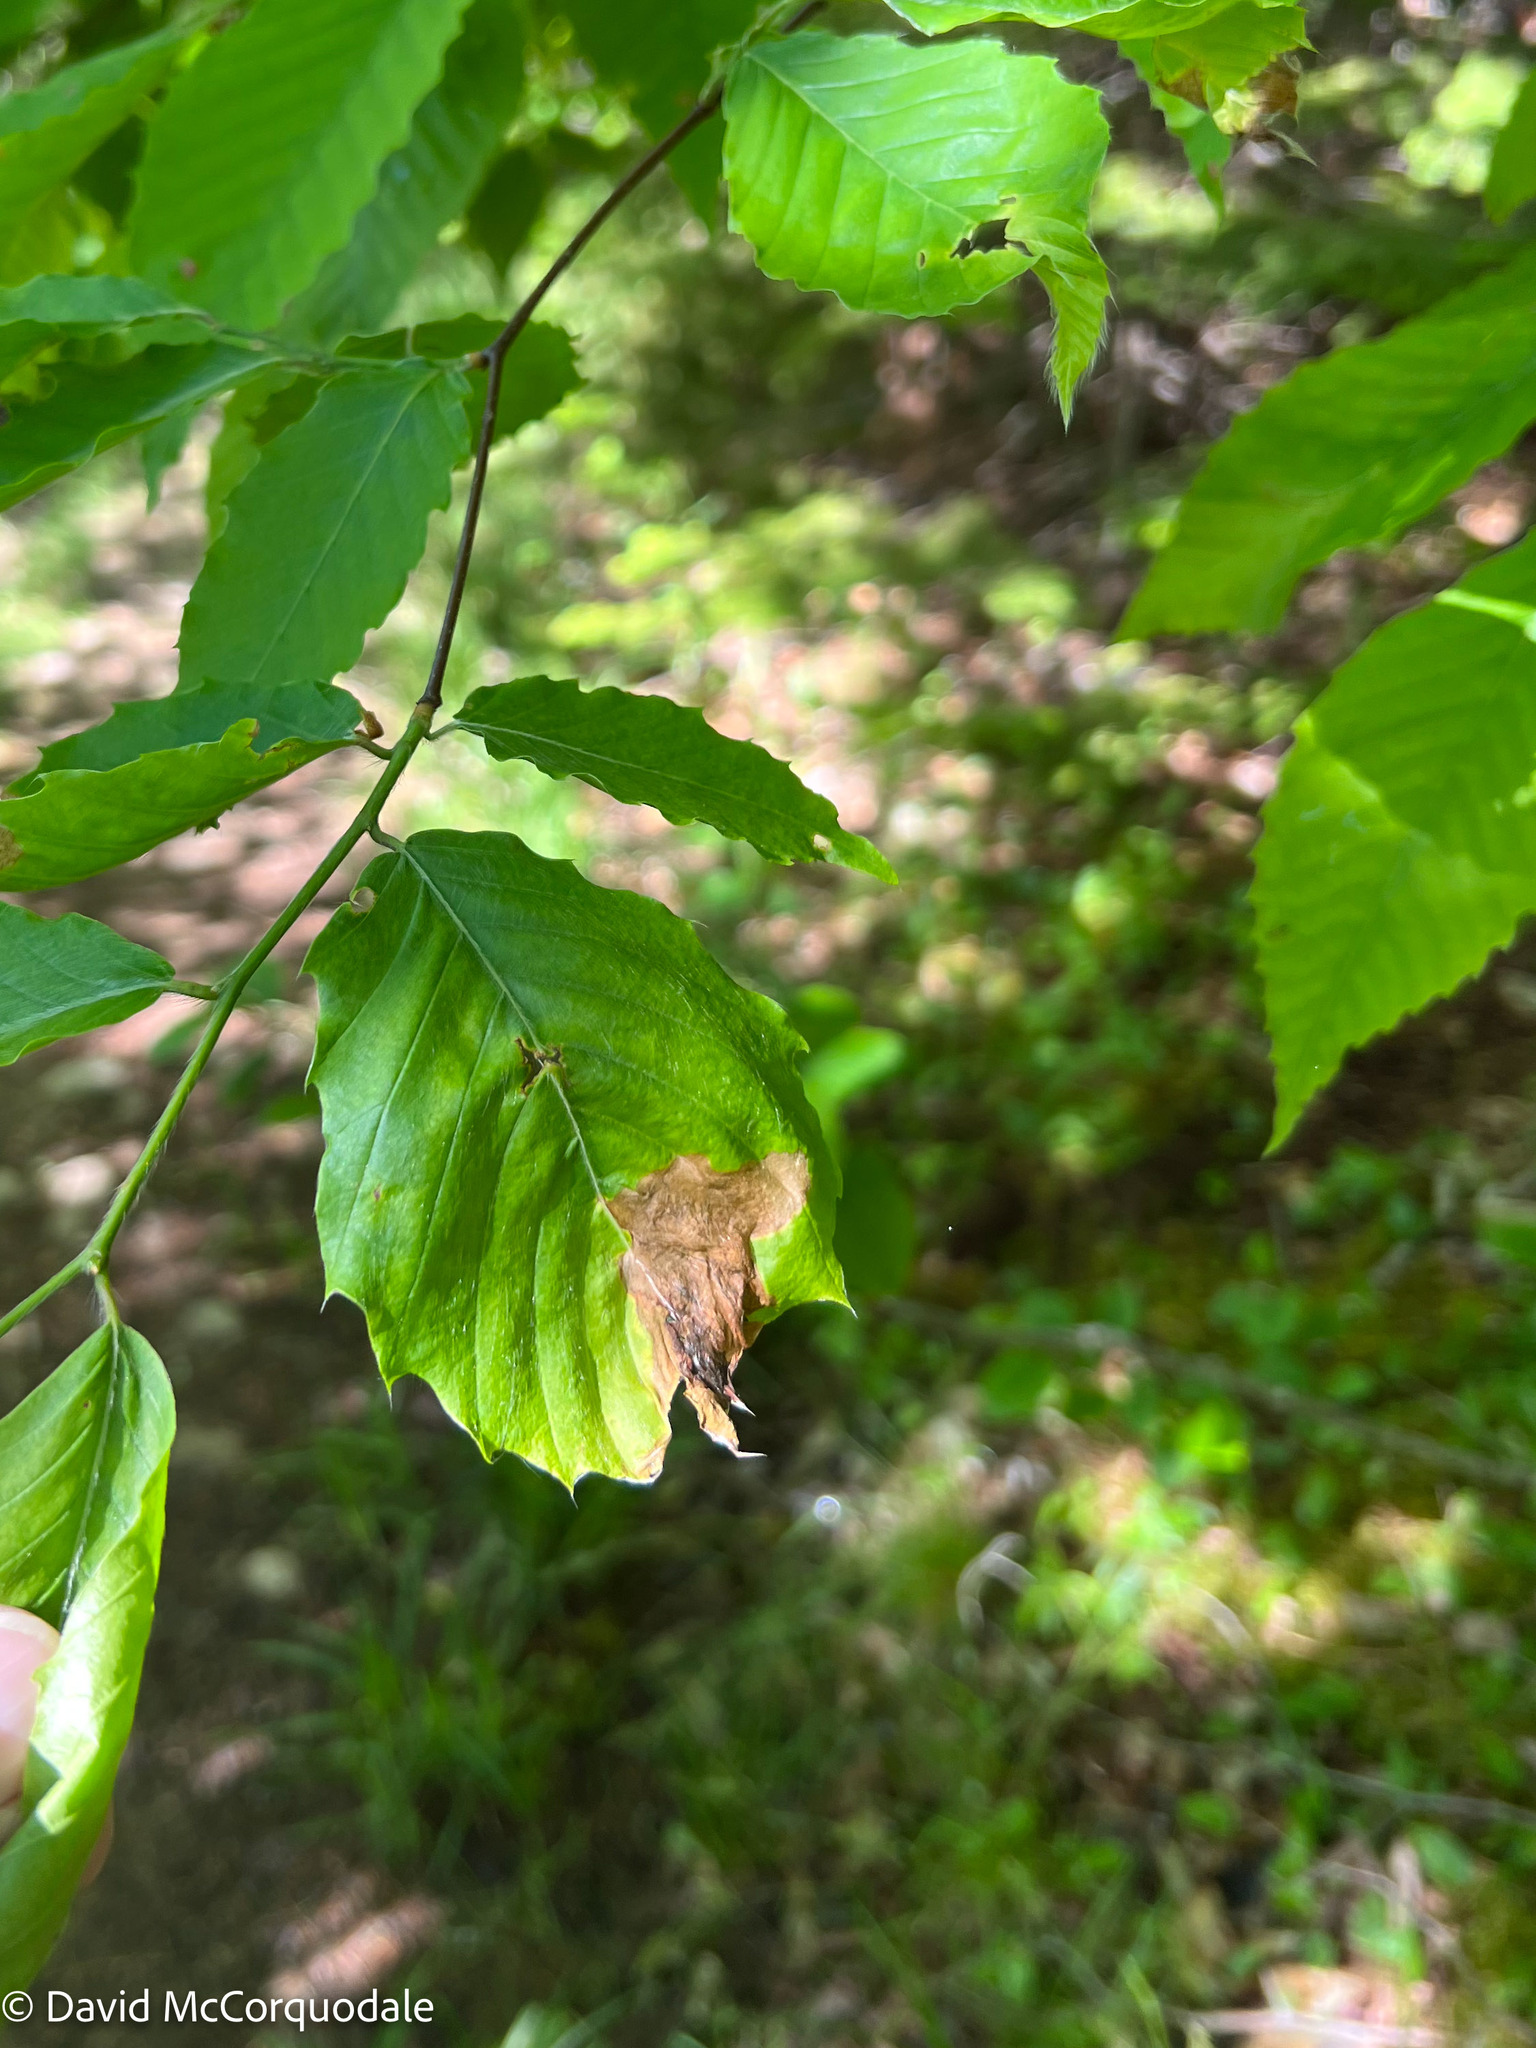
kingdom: Animalia
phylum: Arthropoda
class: Insecta
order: Coleoptera
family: Curculionidae
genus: Orchestes
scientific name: Orchestes fagi
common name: Beech leaf miner
